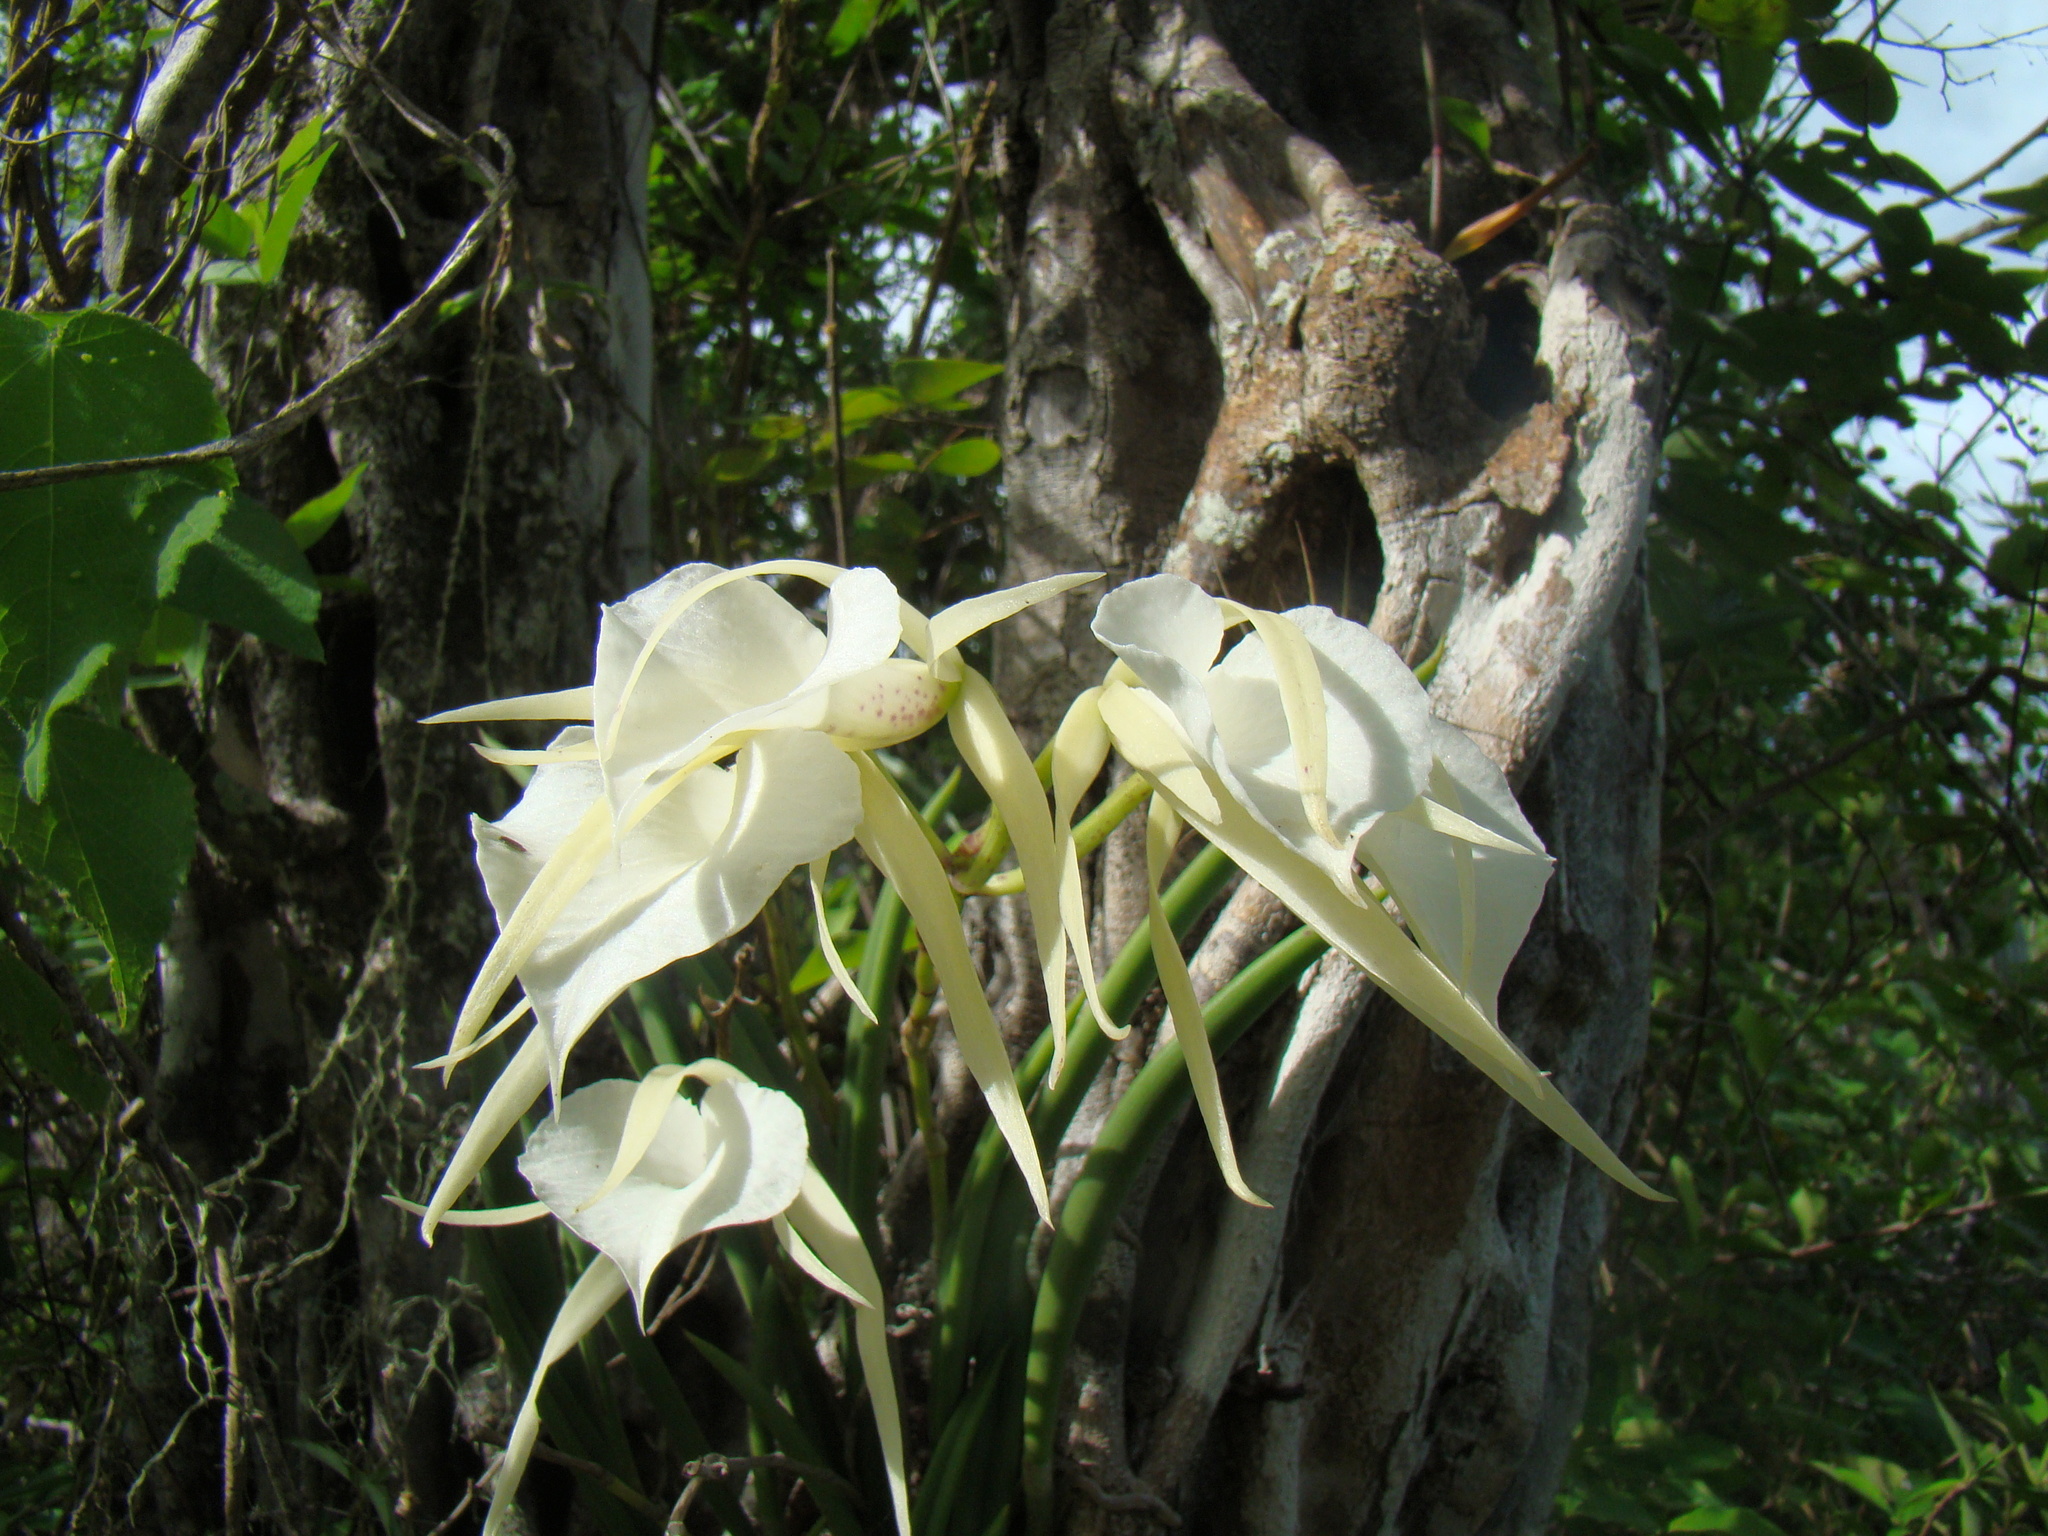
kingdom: Plantae
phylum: Tracheophyta
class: Liliopsida
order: Asparagales
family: Orchidaceae
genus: Brassavola
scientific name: Brassavola nodosa
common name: Lady of the night
